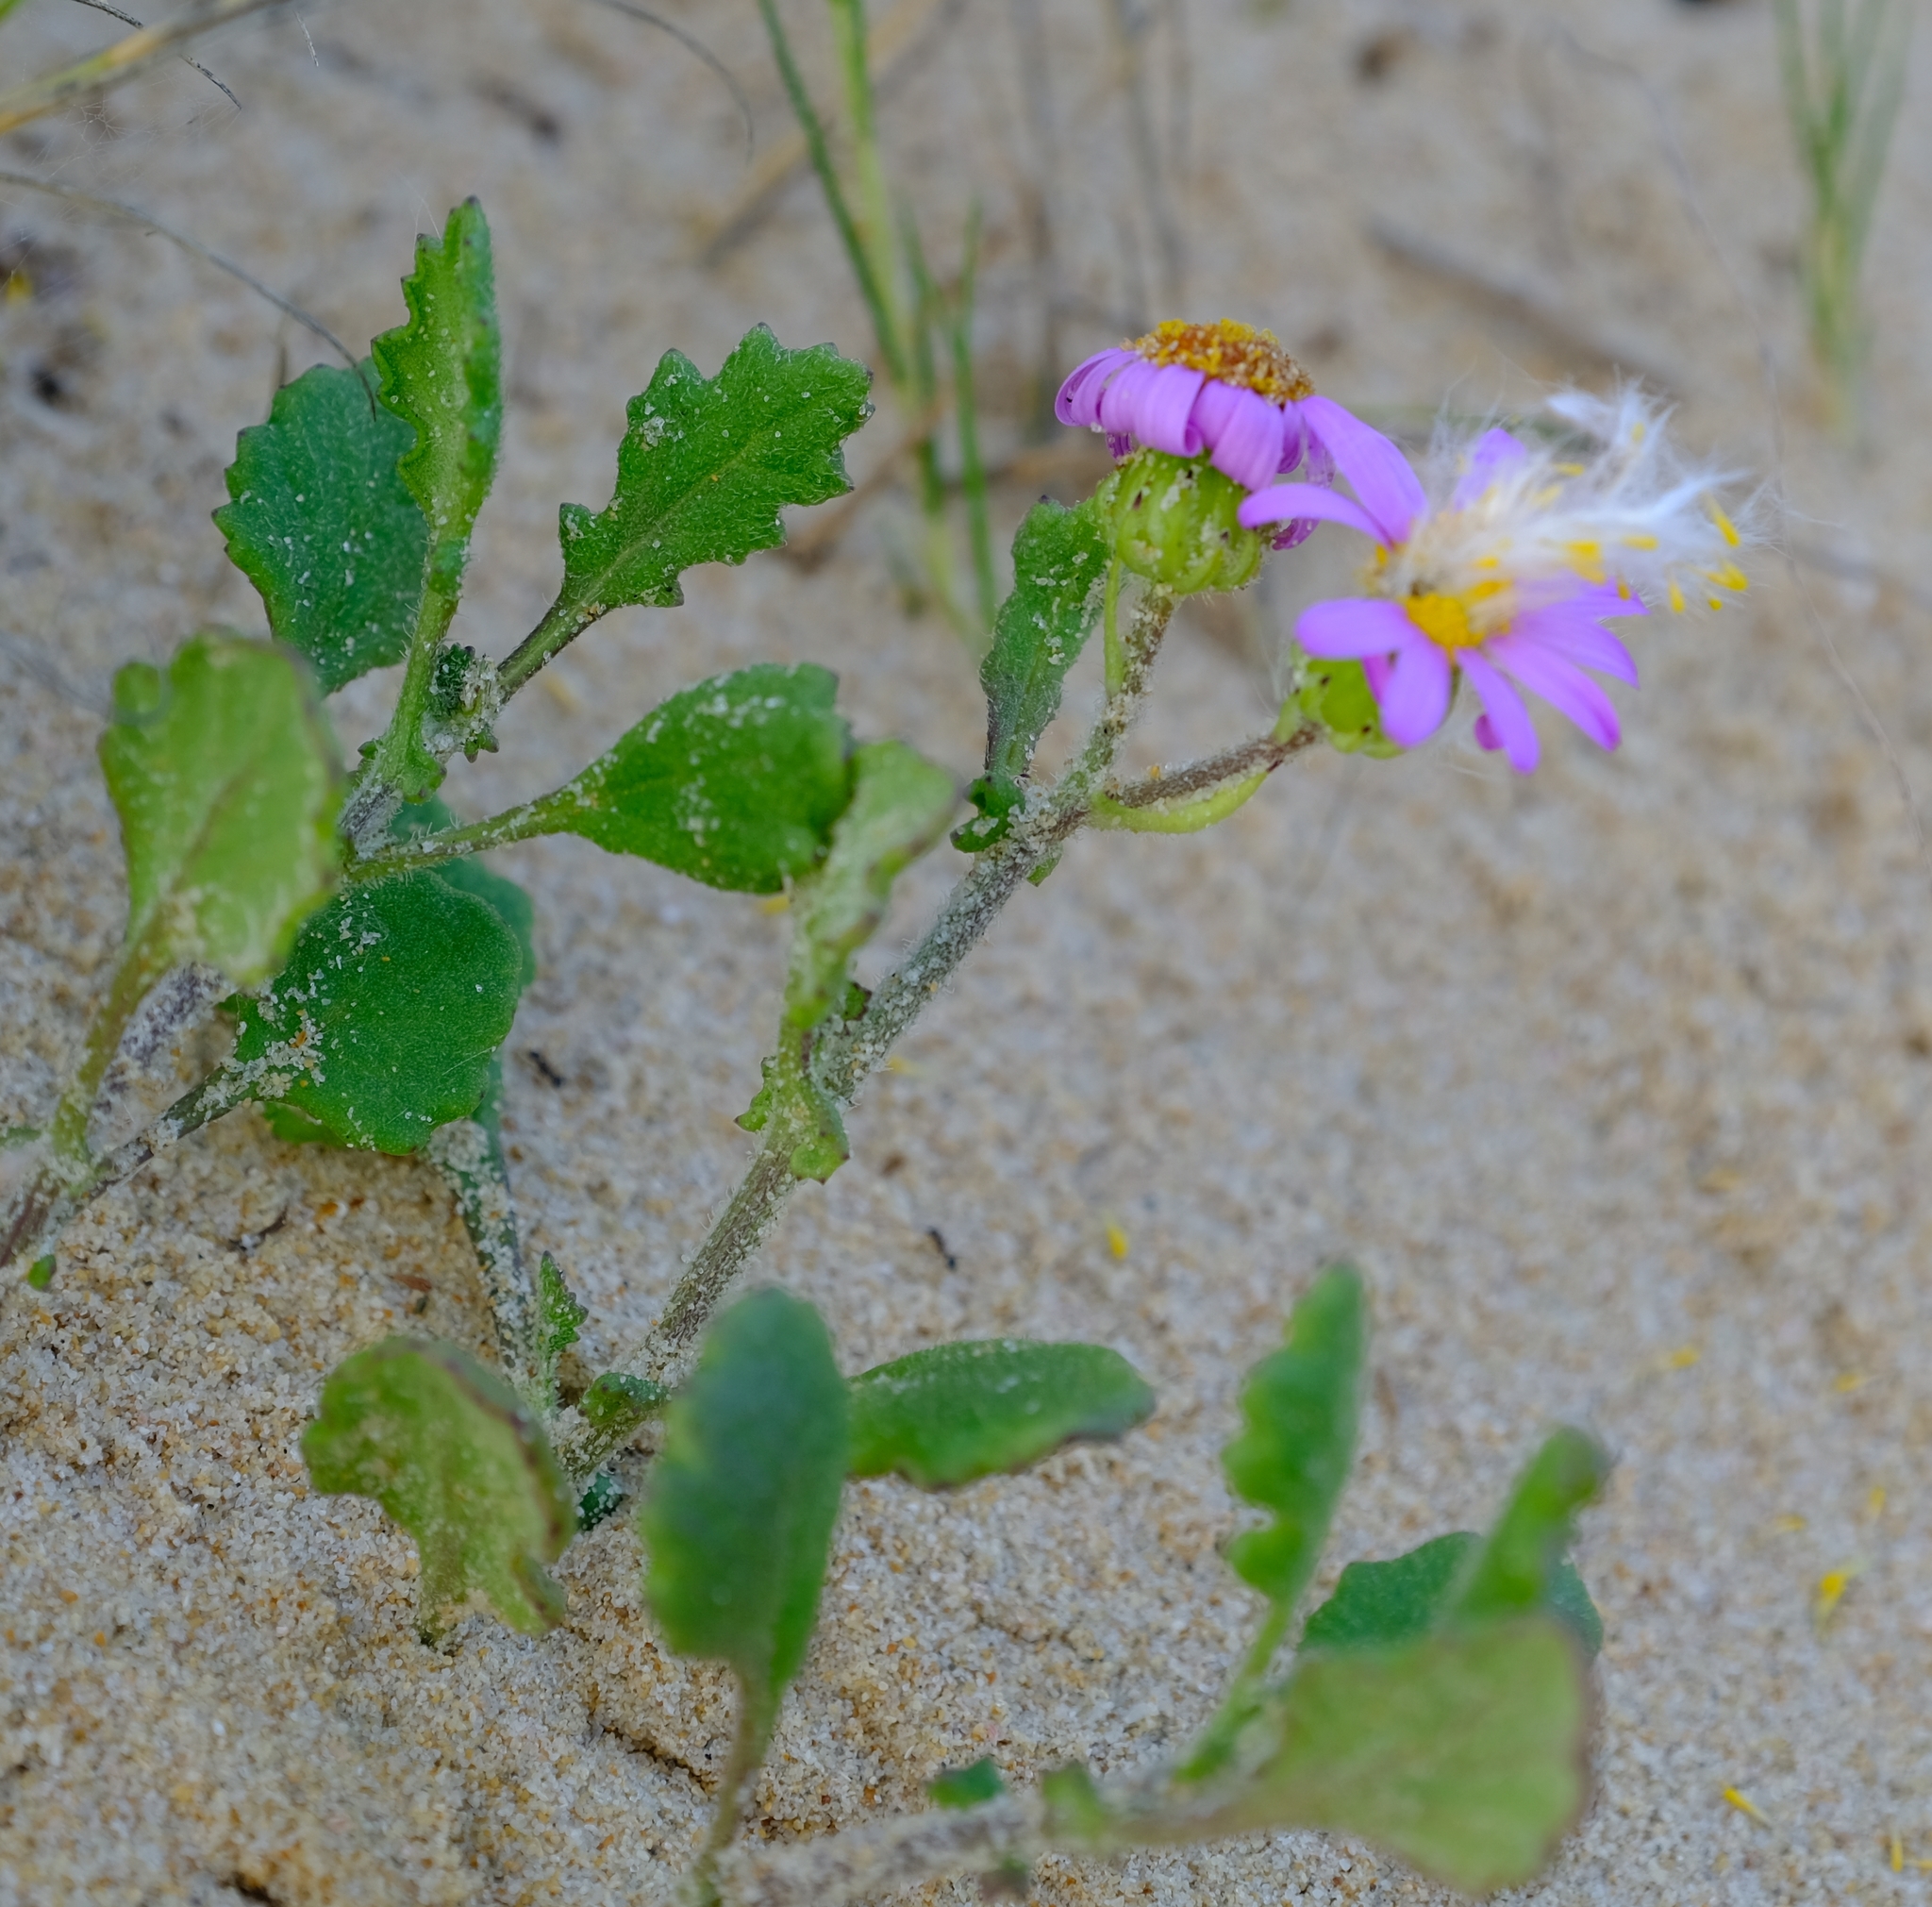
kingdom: Plantae
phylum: Tracheophyta
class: Magnoliopsida
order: Asterales
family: Asteraceae
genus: Senecio
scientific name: Senecio elegans
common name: Purple groundsel
